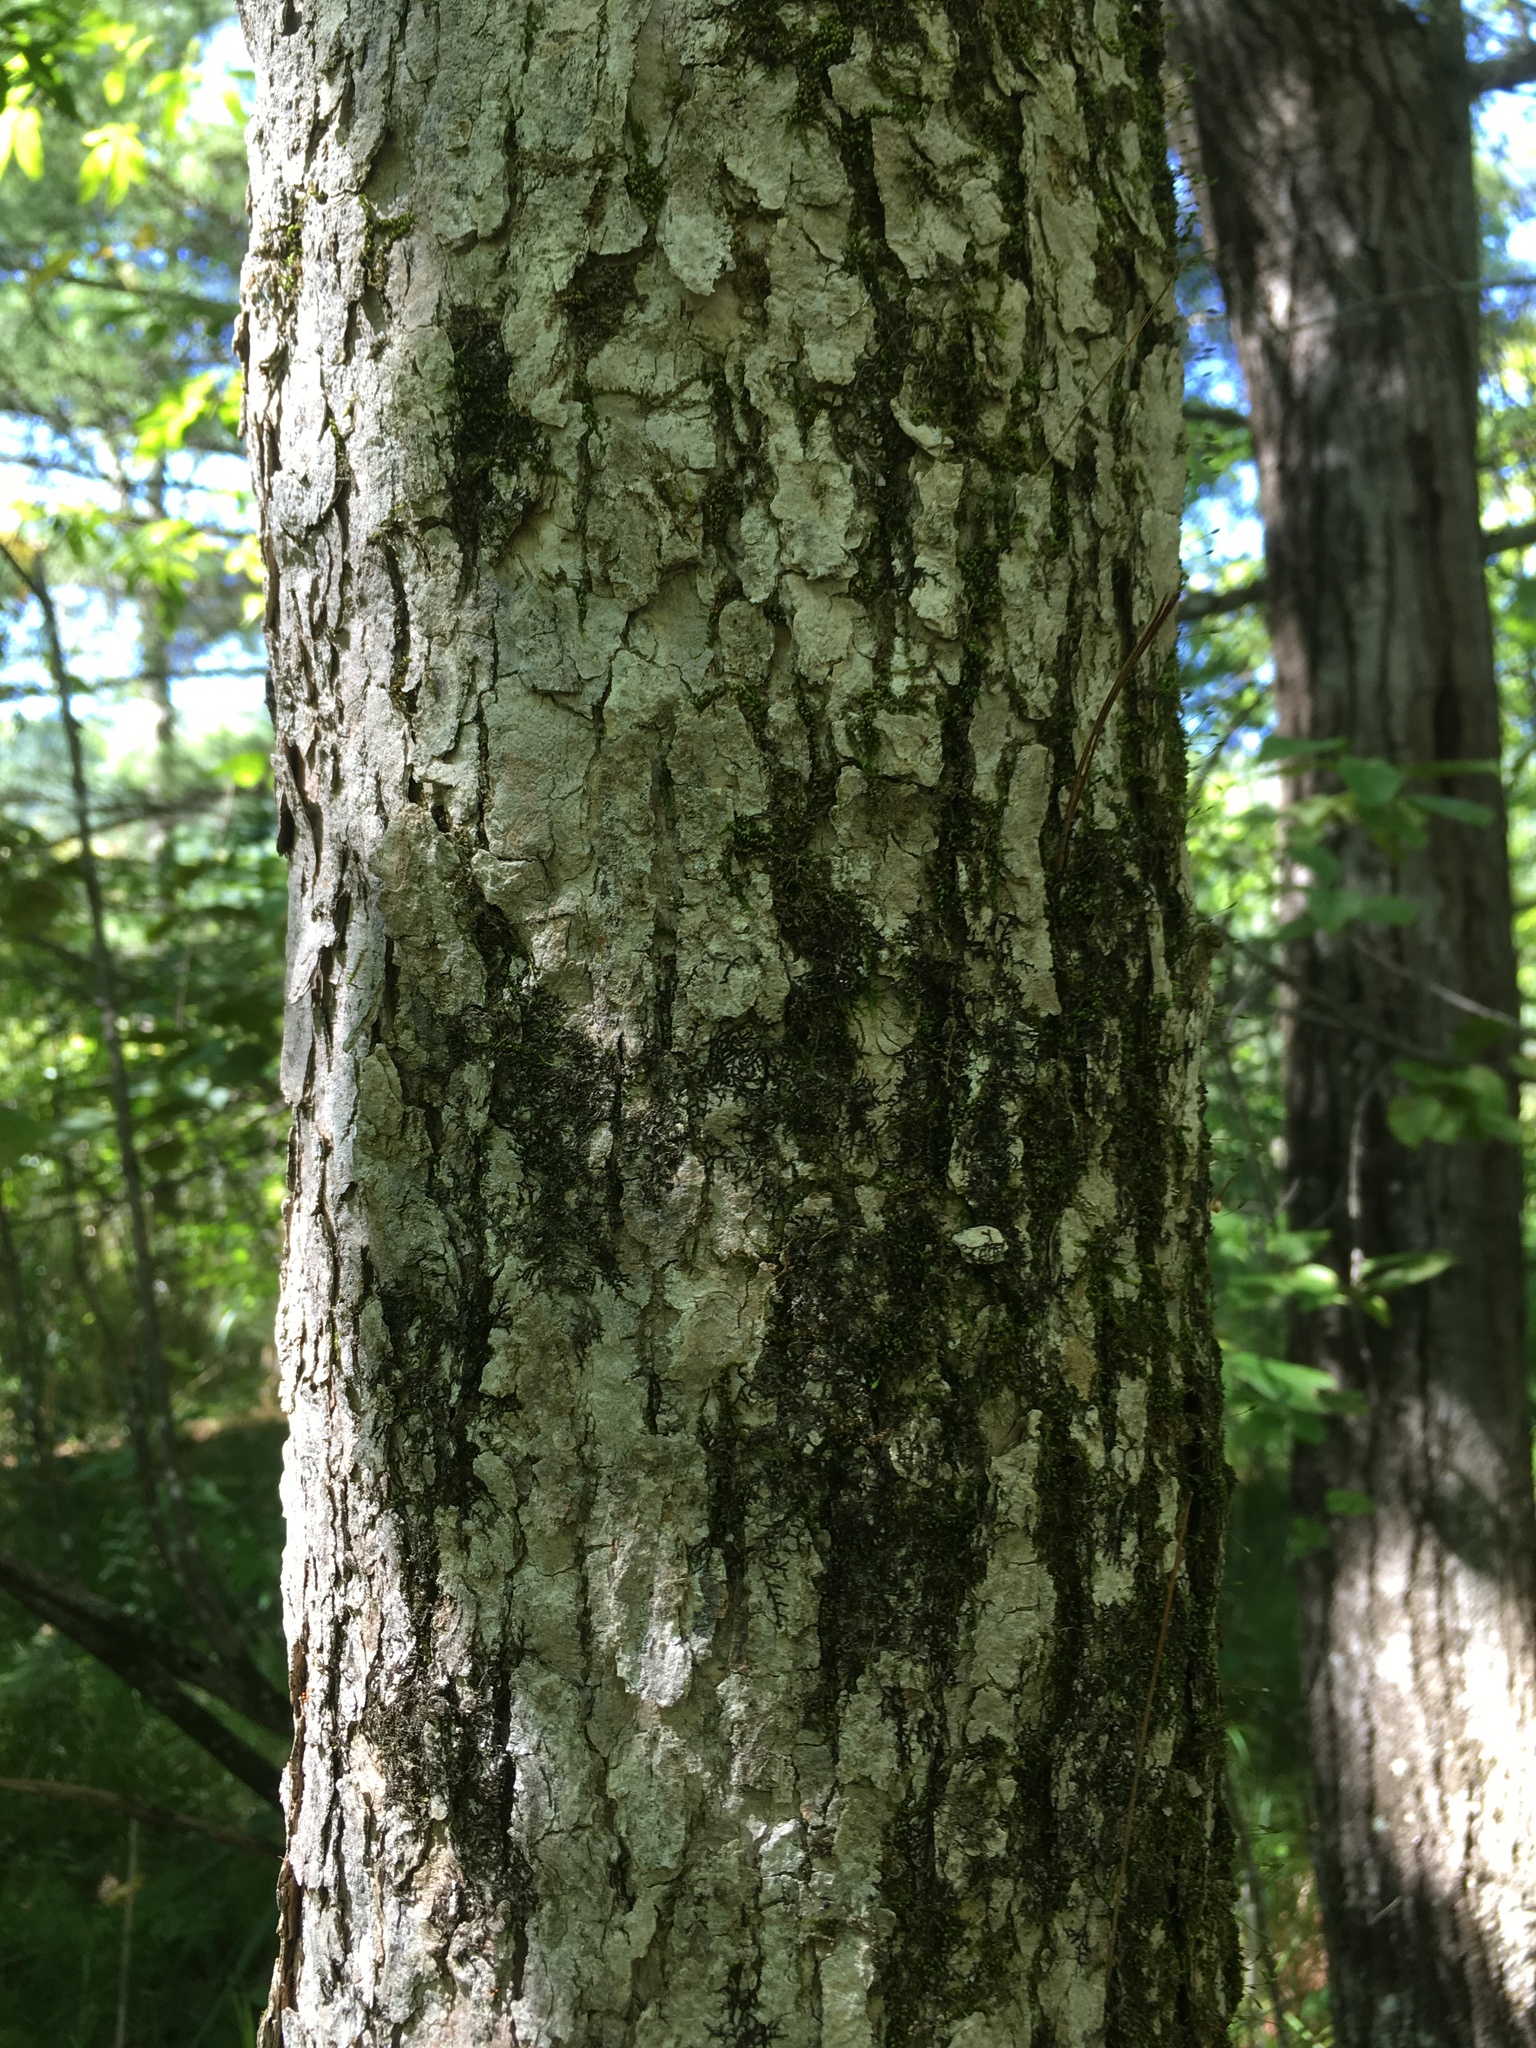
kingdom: Plantae
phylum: Marchantiophyta
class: Jungermanniopsida
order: Porellales
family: Frullaniaceae
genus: Frullania
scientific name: Frullania eboracensis
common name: New york scalewort
